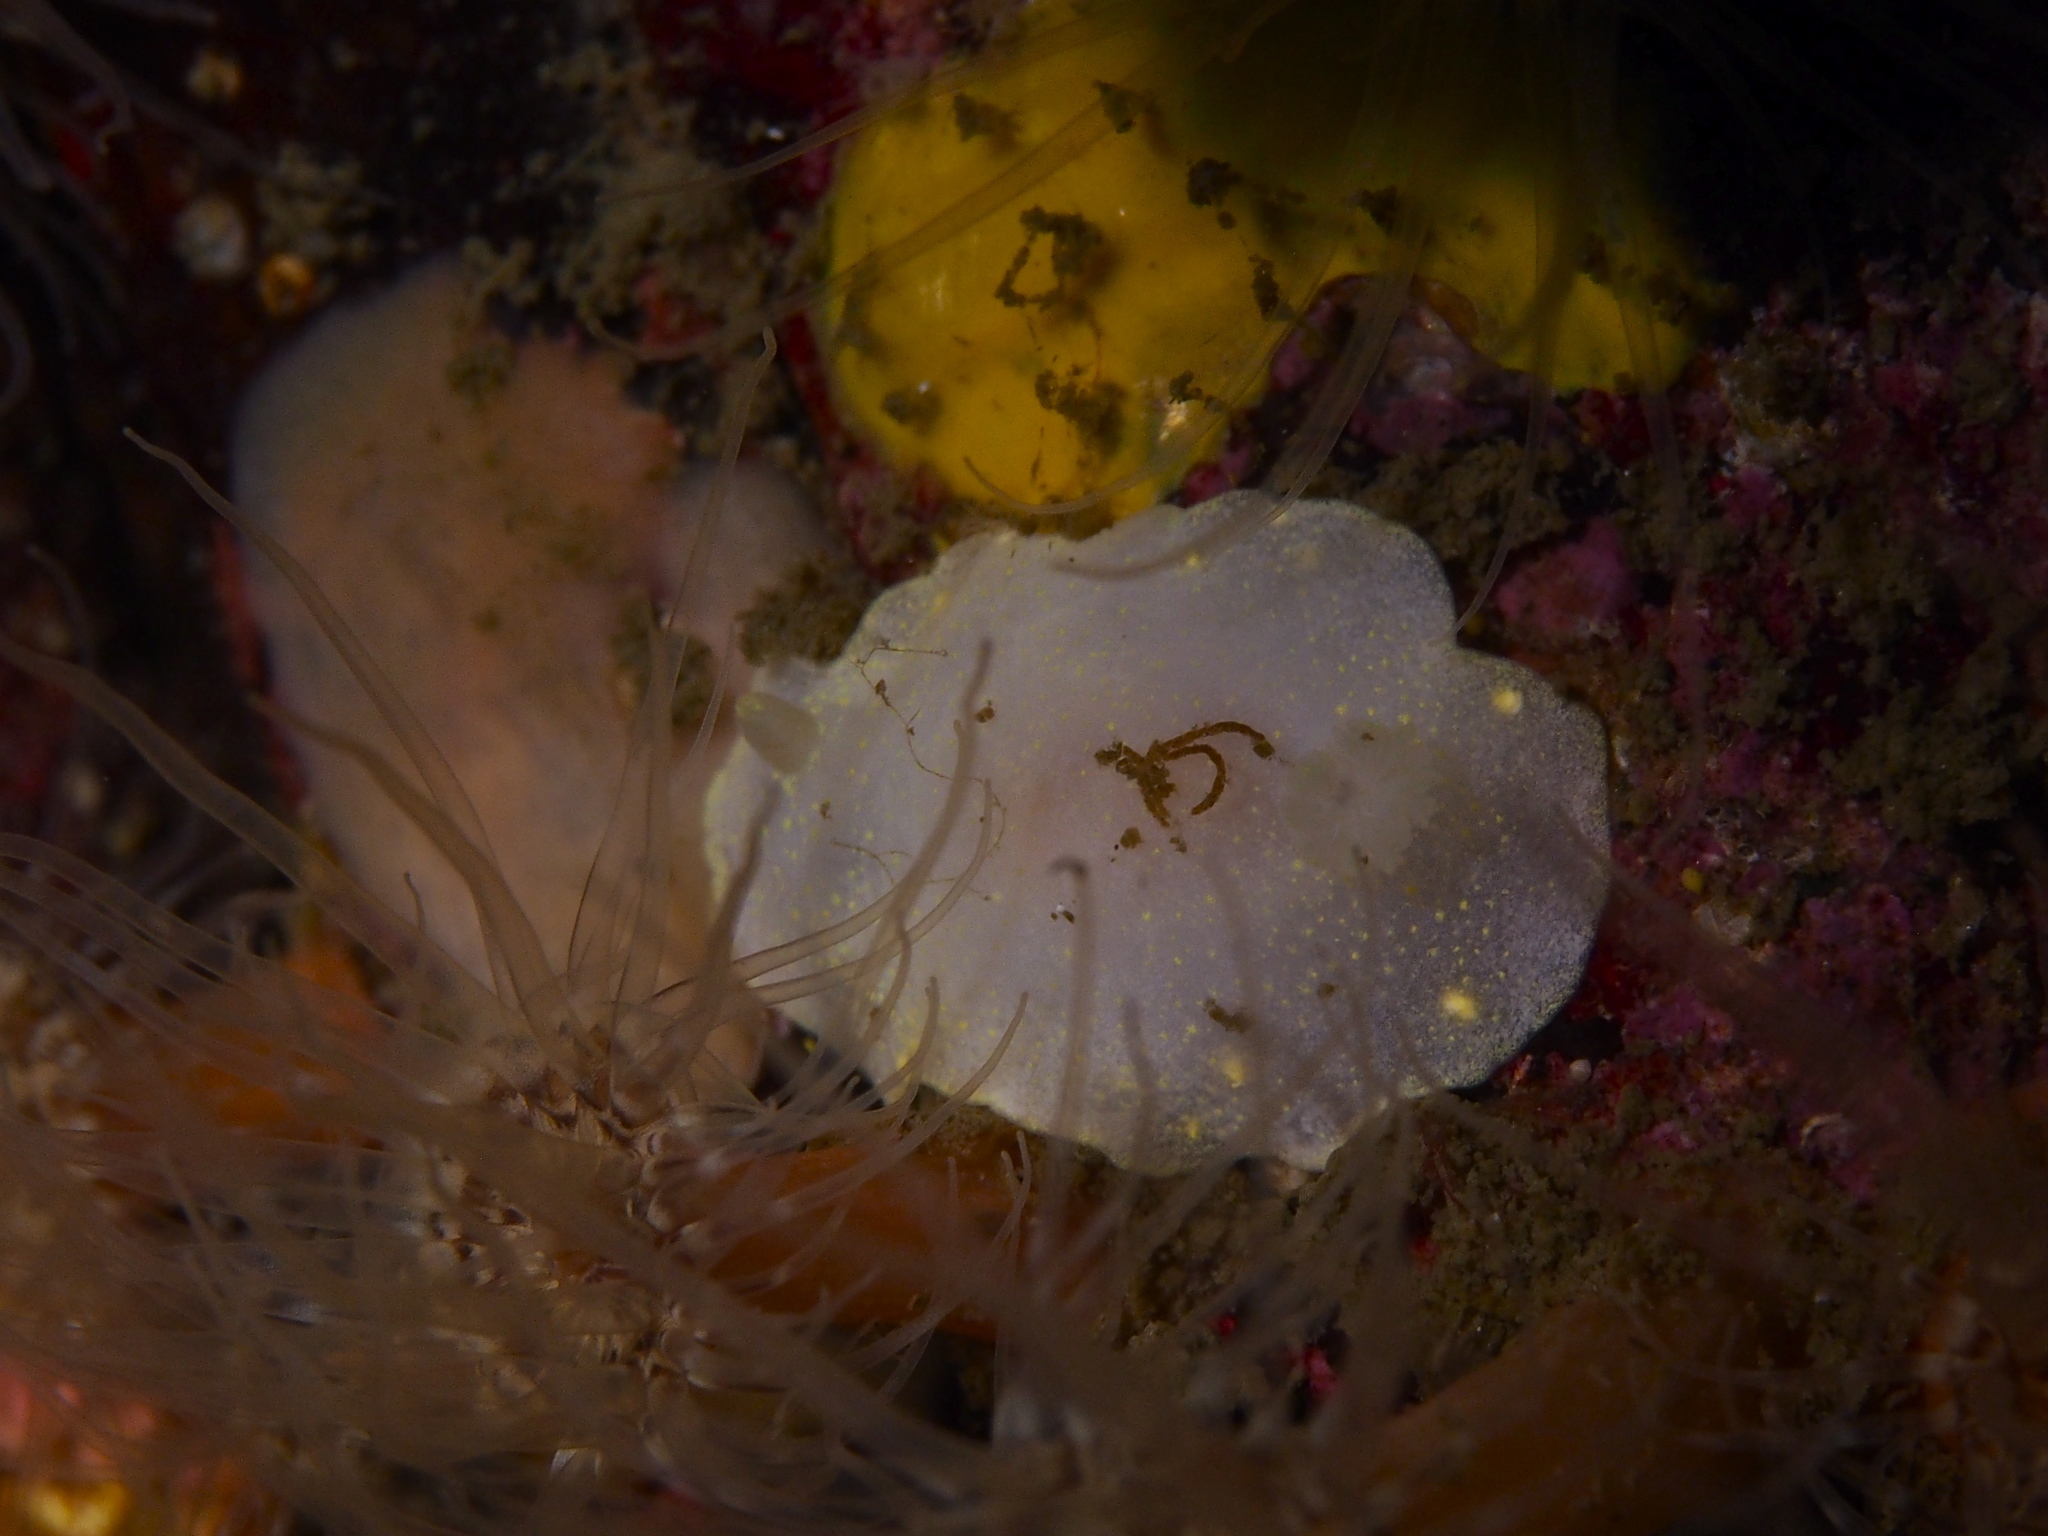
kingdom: Animalia
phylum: Mollusca
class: Gastropoda
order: Nudibranchia
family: Cadlinidae
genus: Cadlina
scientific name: Cadlina laevis
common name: White atlantic cadlina
